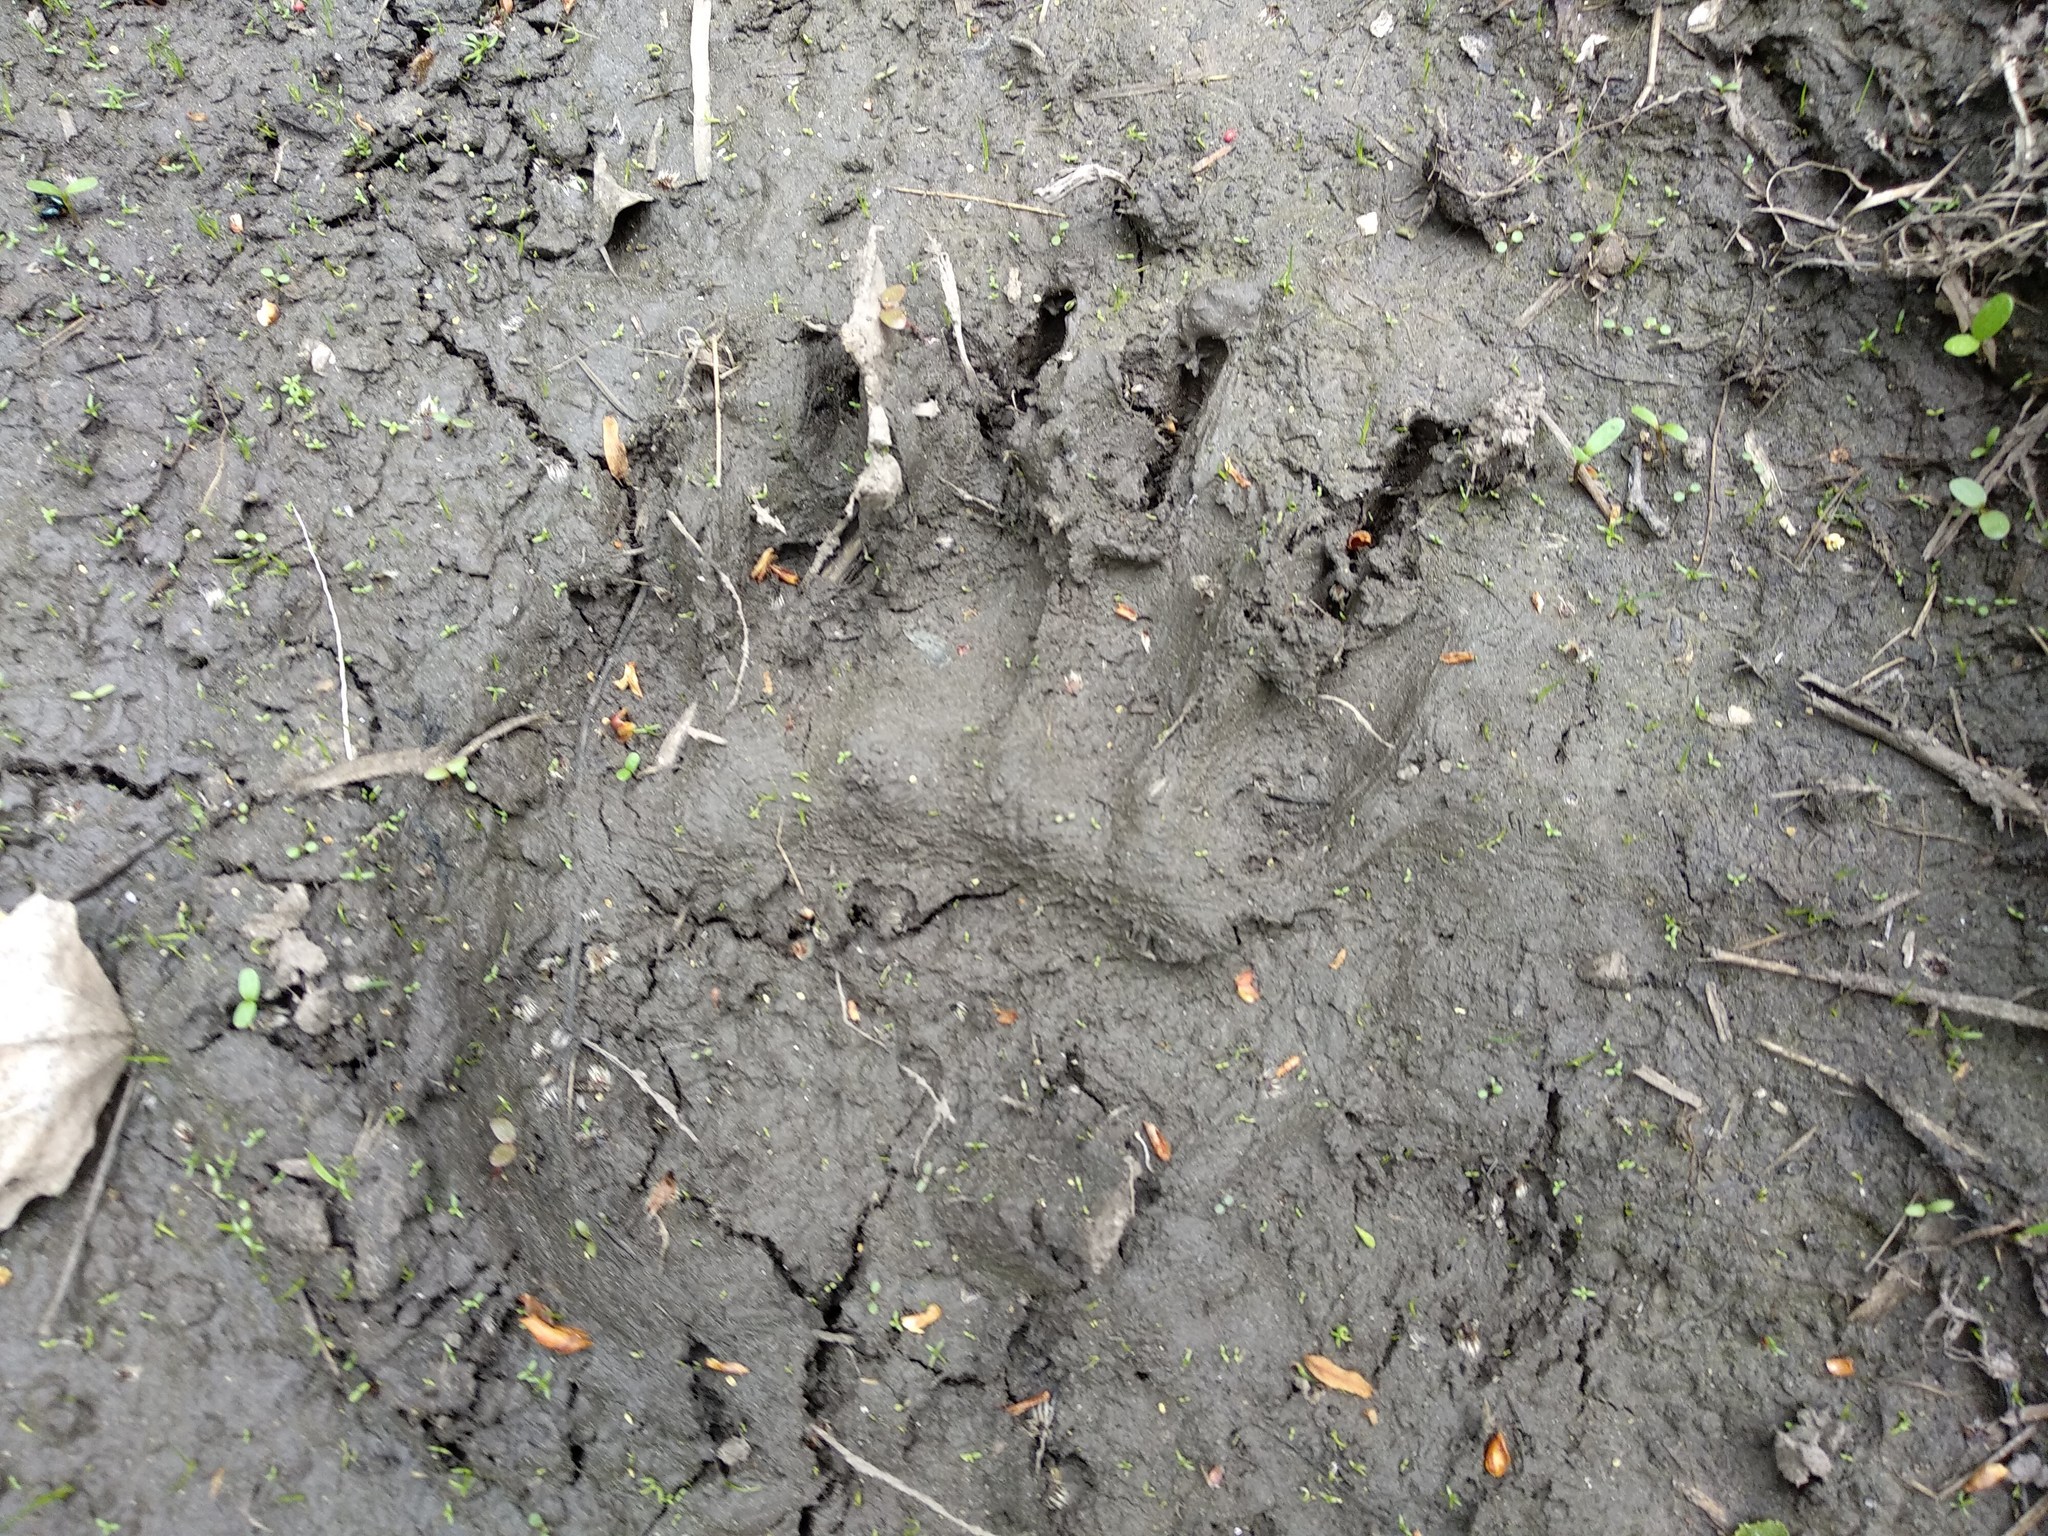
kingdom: Animalia
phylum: Chordata
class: Mammalia
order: Carnivora
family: Ursidae
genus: Ursus
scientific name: Ursus arctos
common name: Brown bear
